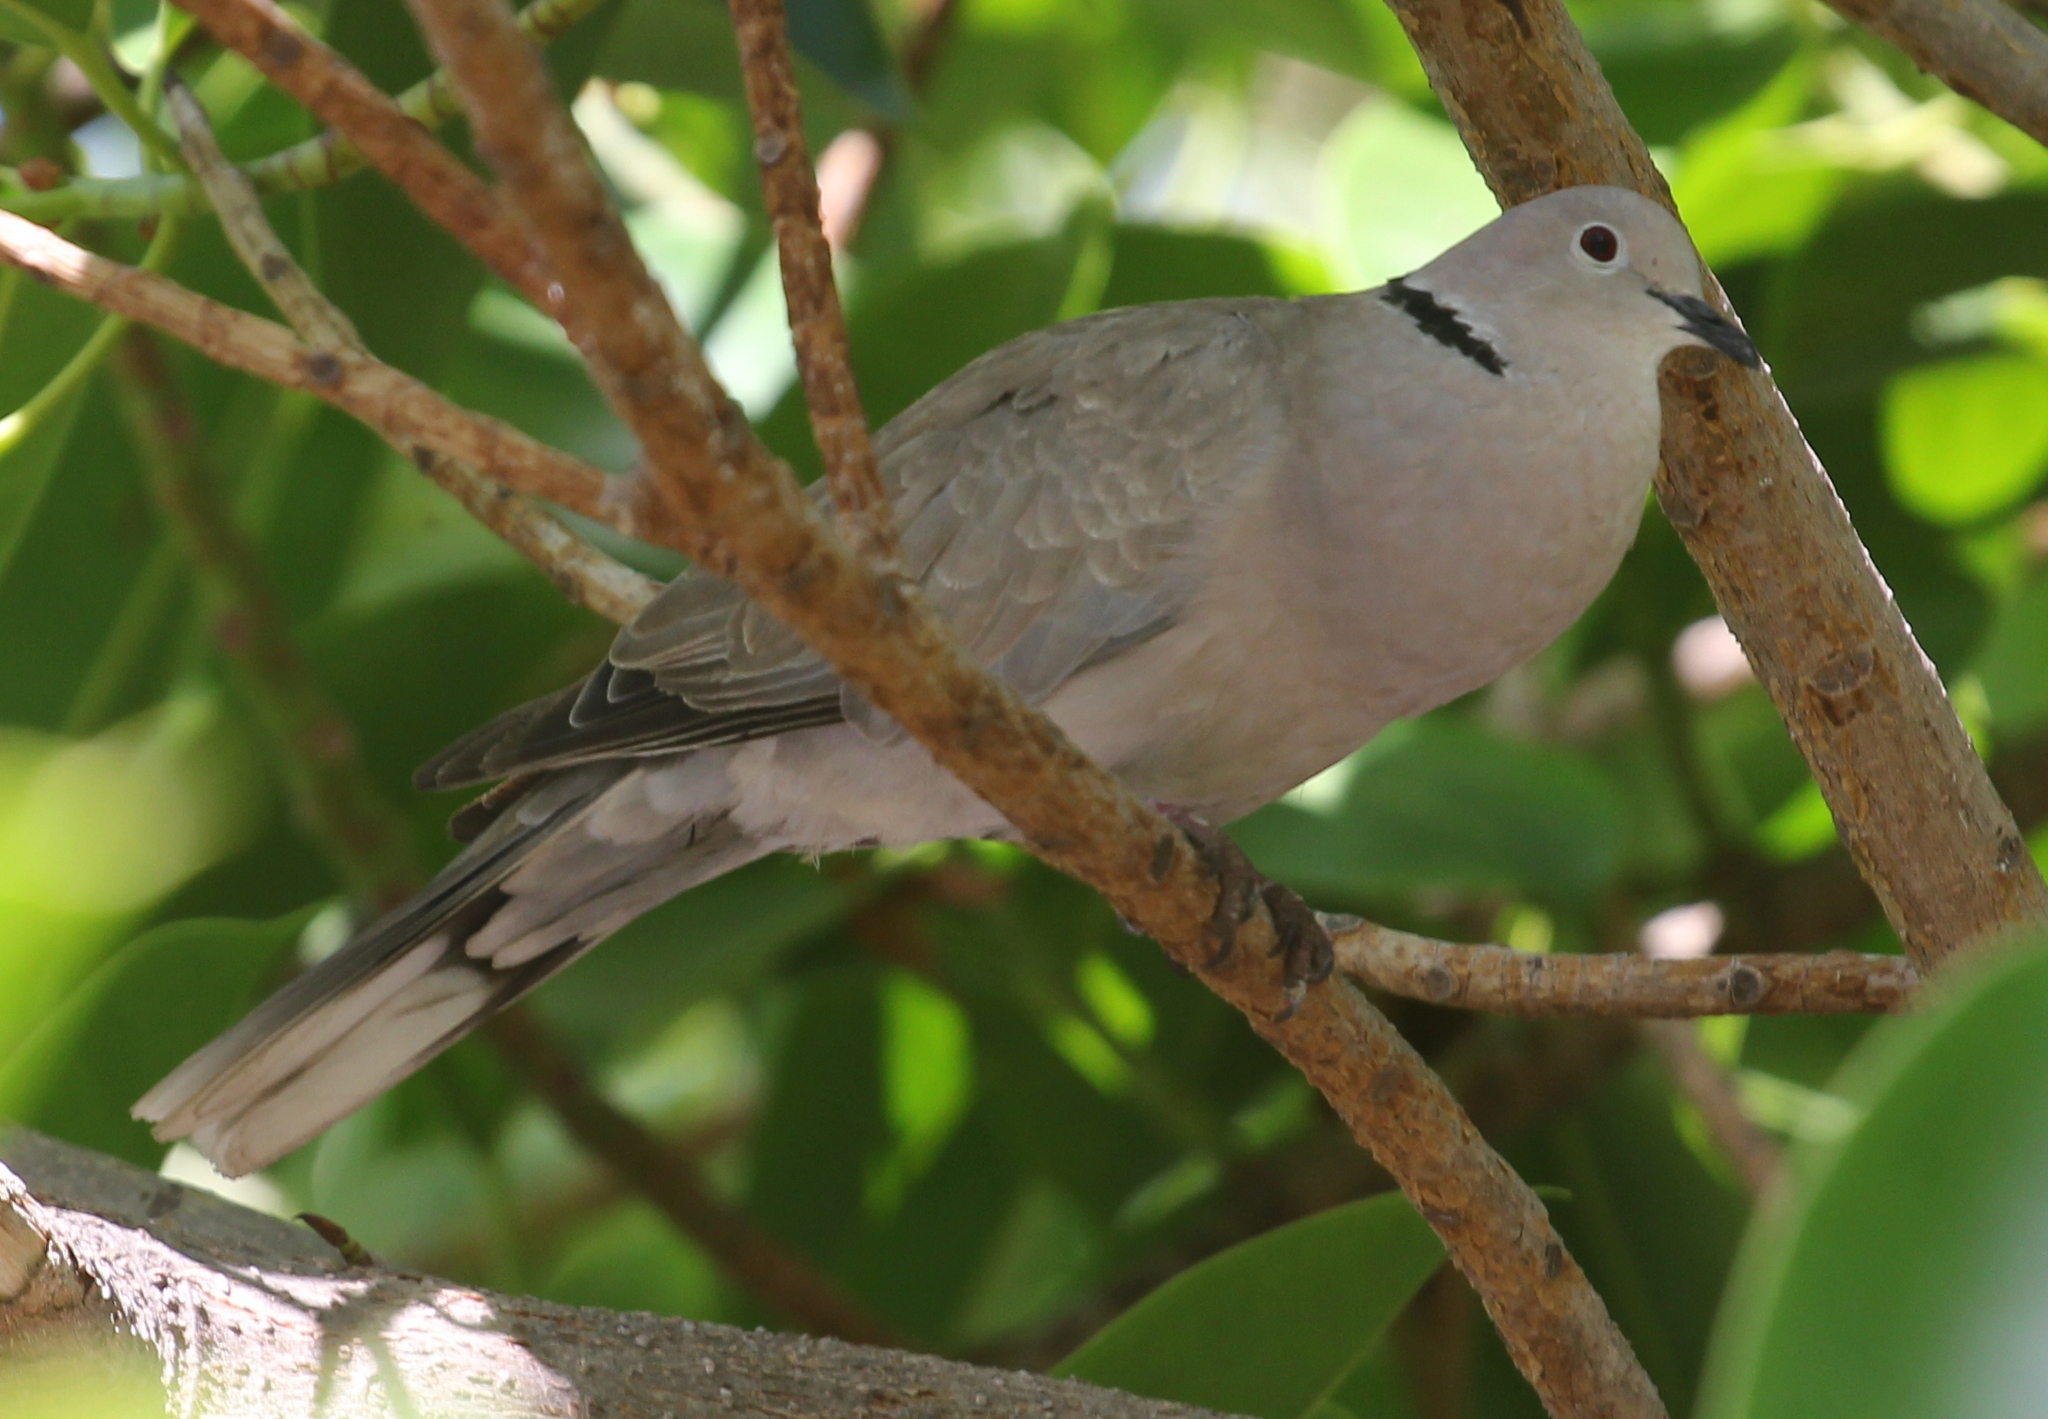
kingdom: Animalia
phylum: Chordata
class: Aves
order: Columbiformes
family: Columbidae
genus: Streptopelia
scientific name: Streptopelia decaocto
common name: Eurasian collared dove
